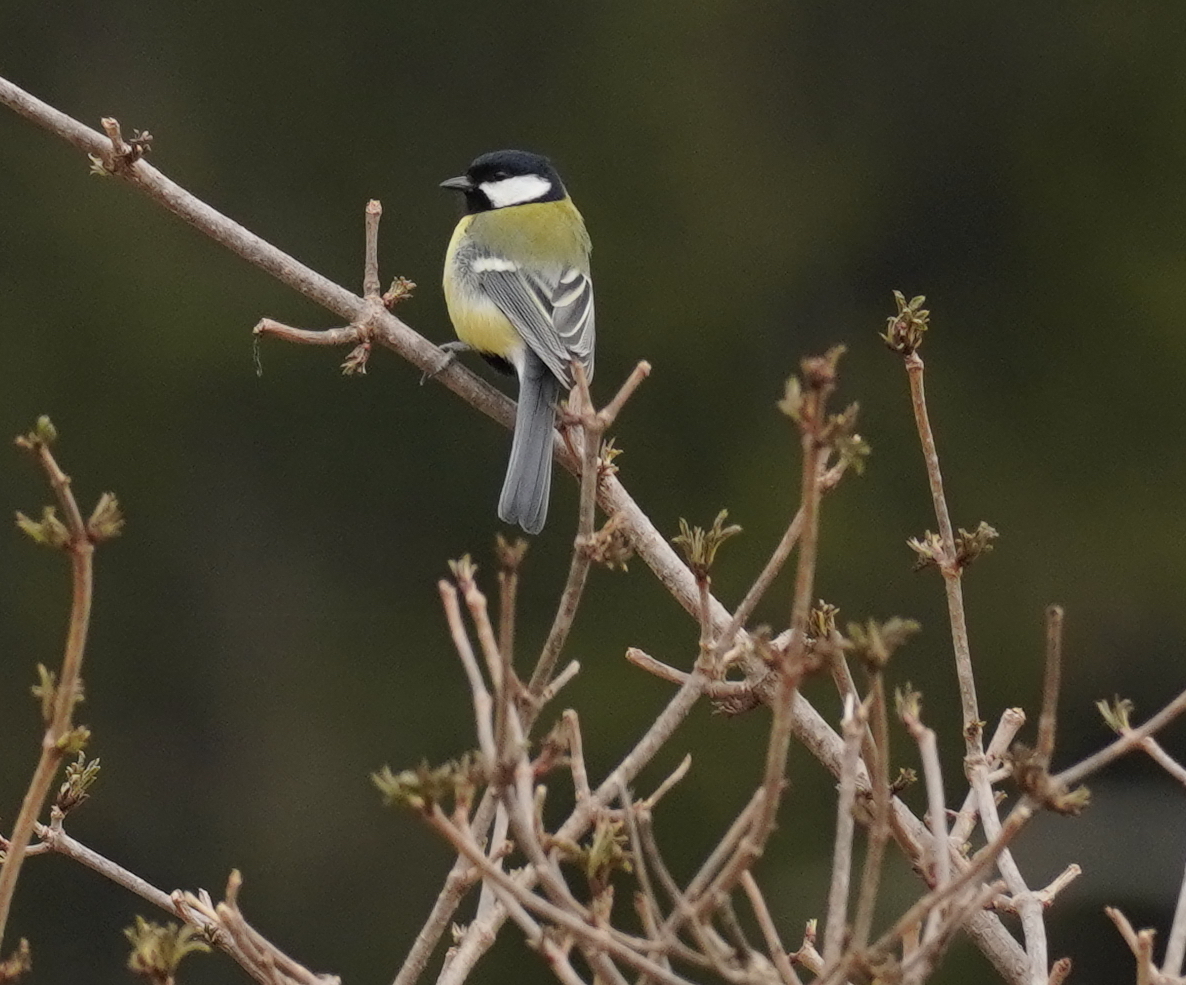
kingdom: Animalia
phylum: Chordata
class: Aves
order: Passeriformes
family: Paridae
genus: Parus
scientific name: Parus major
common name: Great tit
